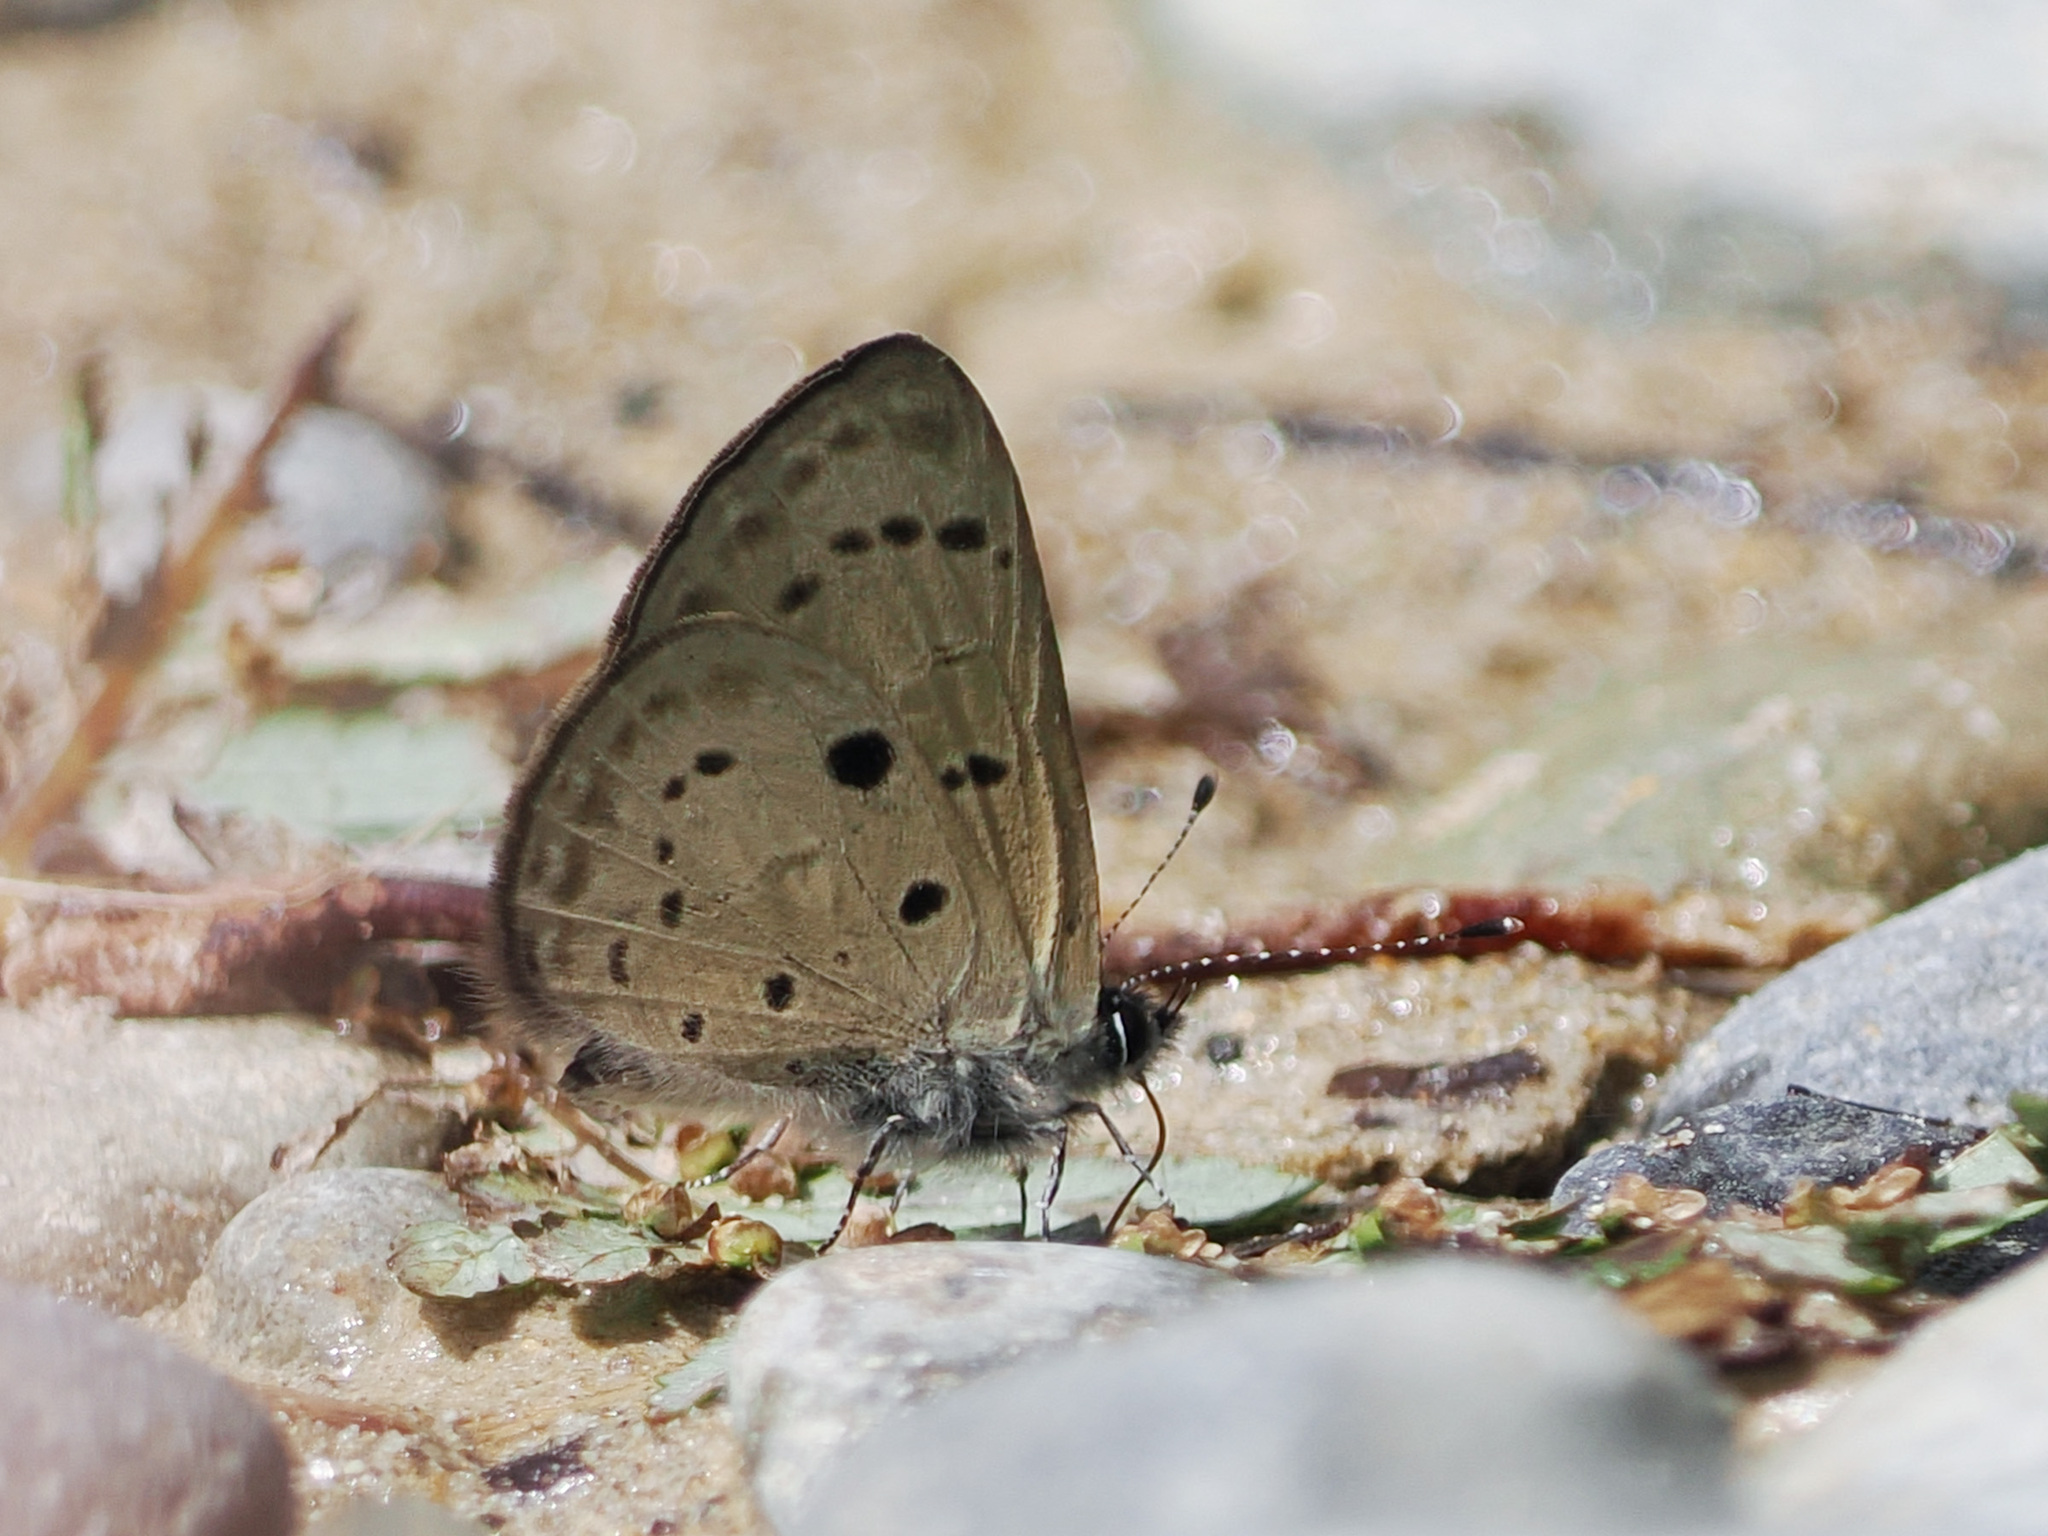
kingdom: Animalia
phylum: Arthropoda
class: Insecta
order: Lepidoptera
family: Lycaenidae
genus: Una
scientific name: Una usta
